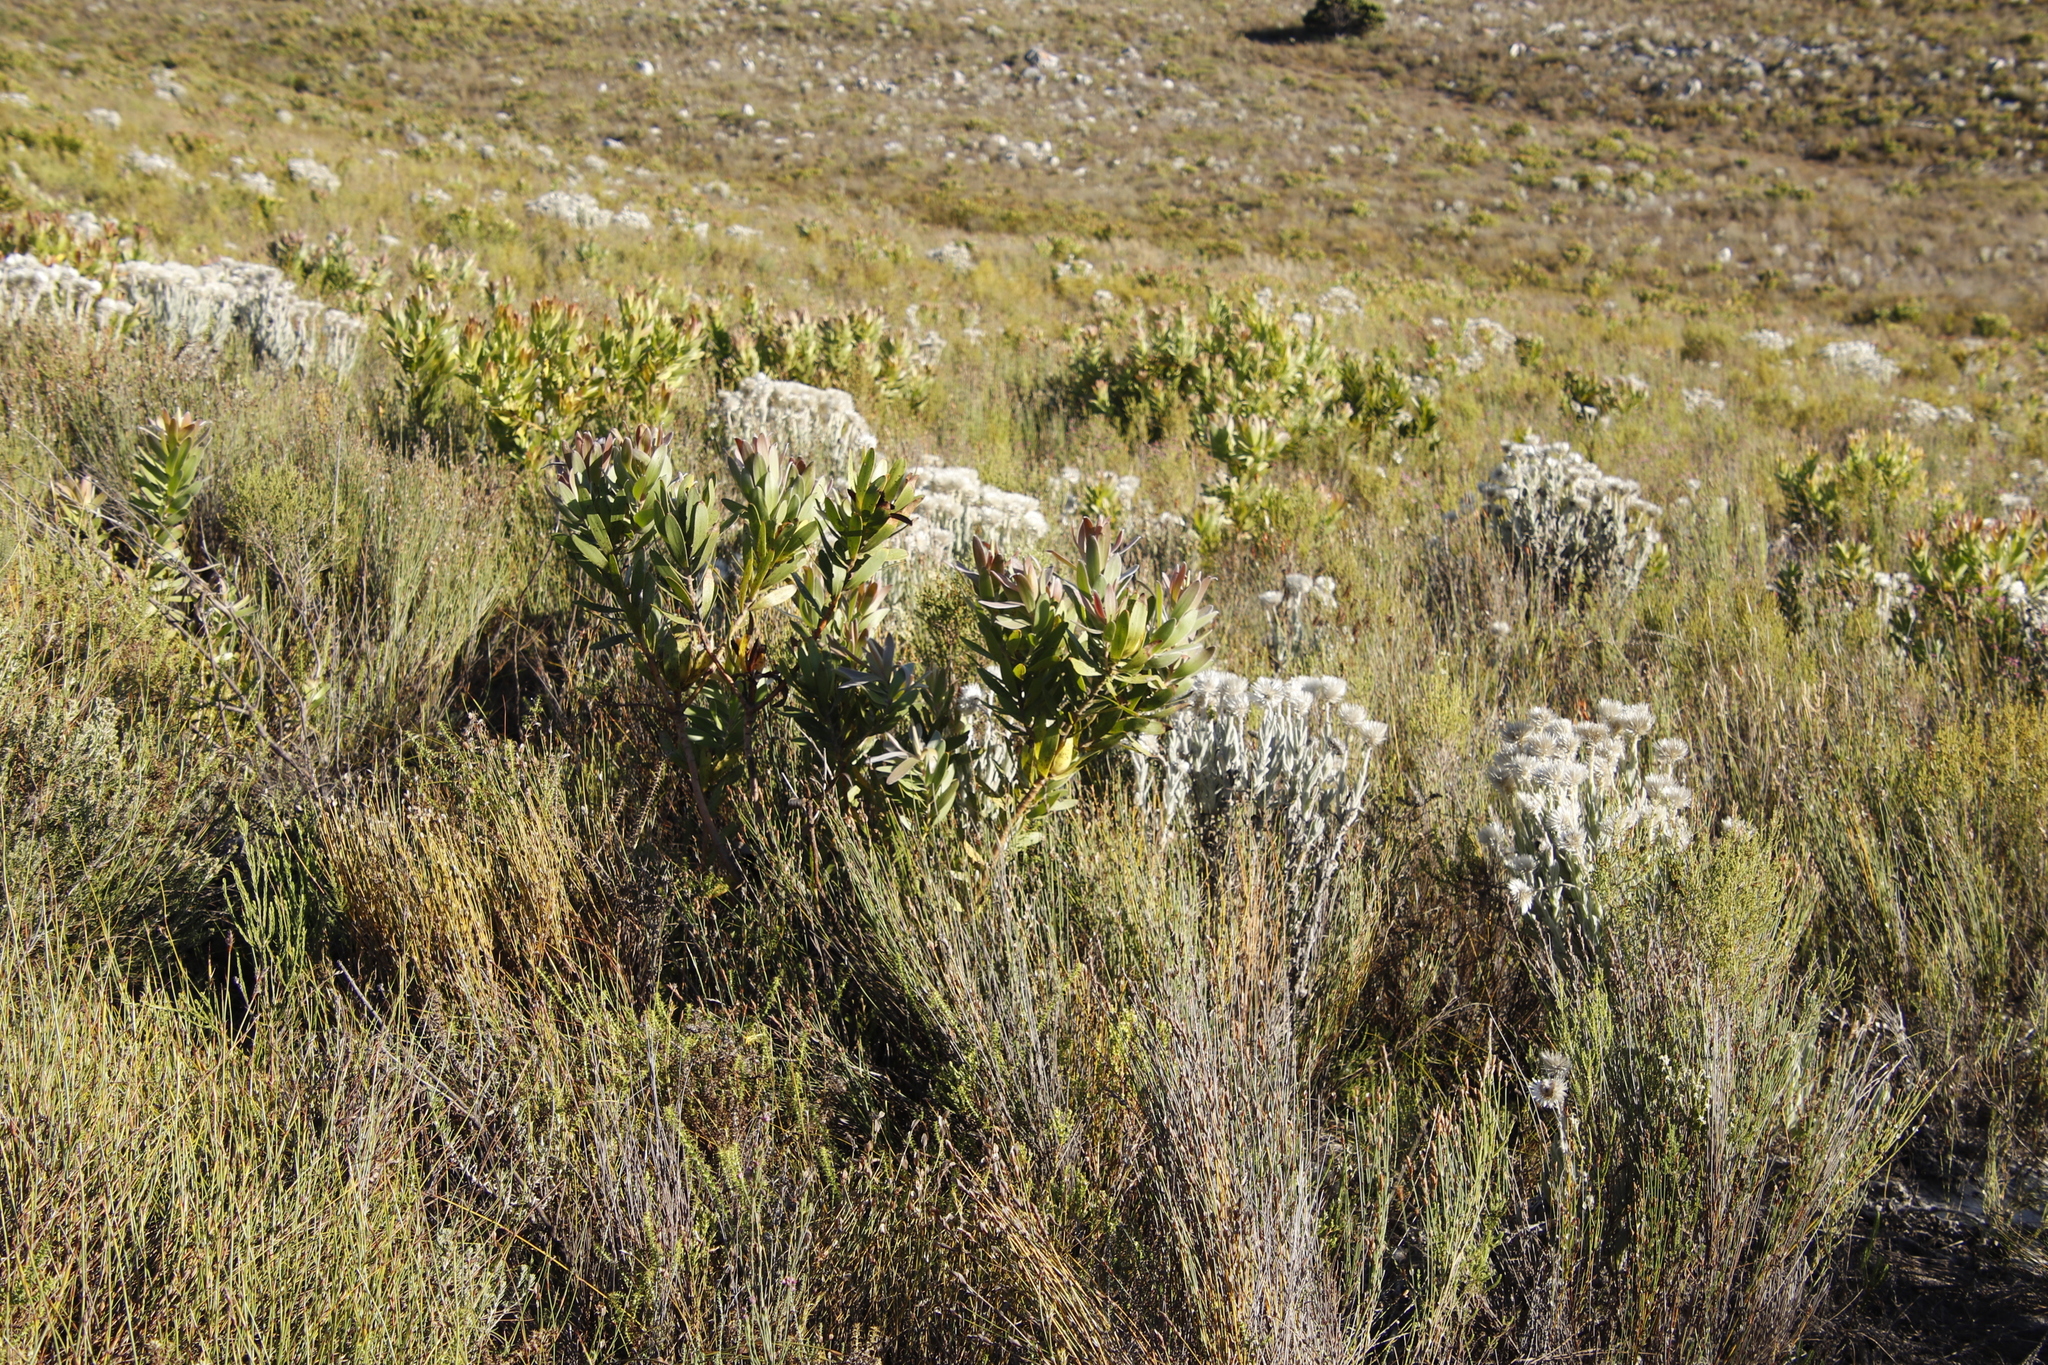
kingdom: Plantae
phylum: Tracheophyta
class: Magnoliopsida
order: Proteales
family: Proteaceae
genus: Leucadendron
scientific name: Leucadendron laureolum
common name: Golden sunshinebush
